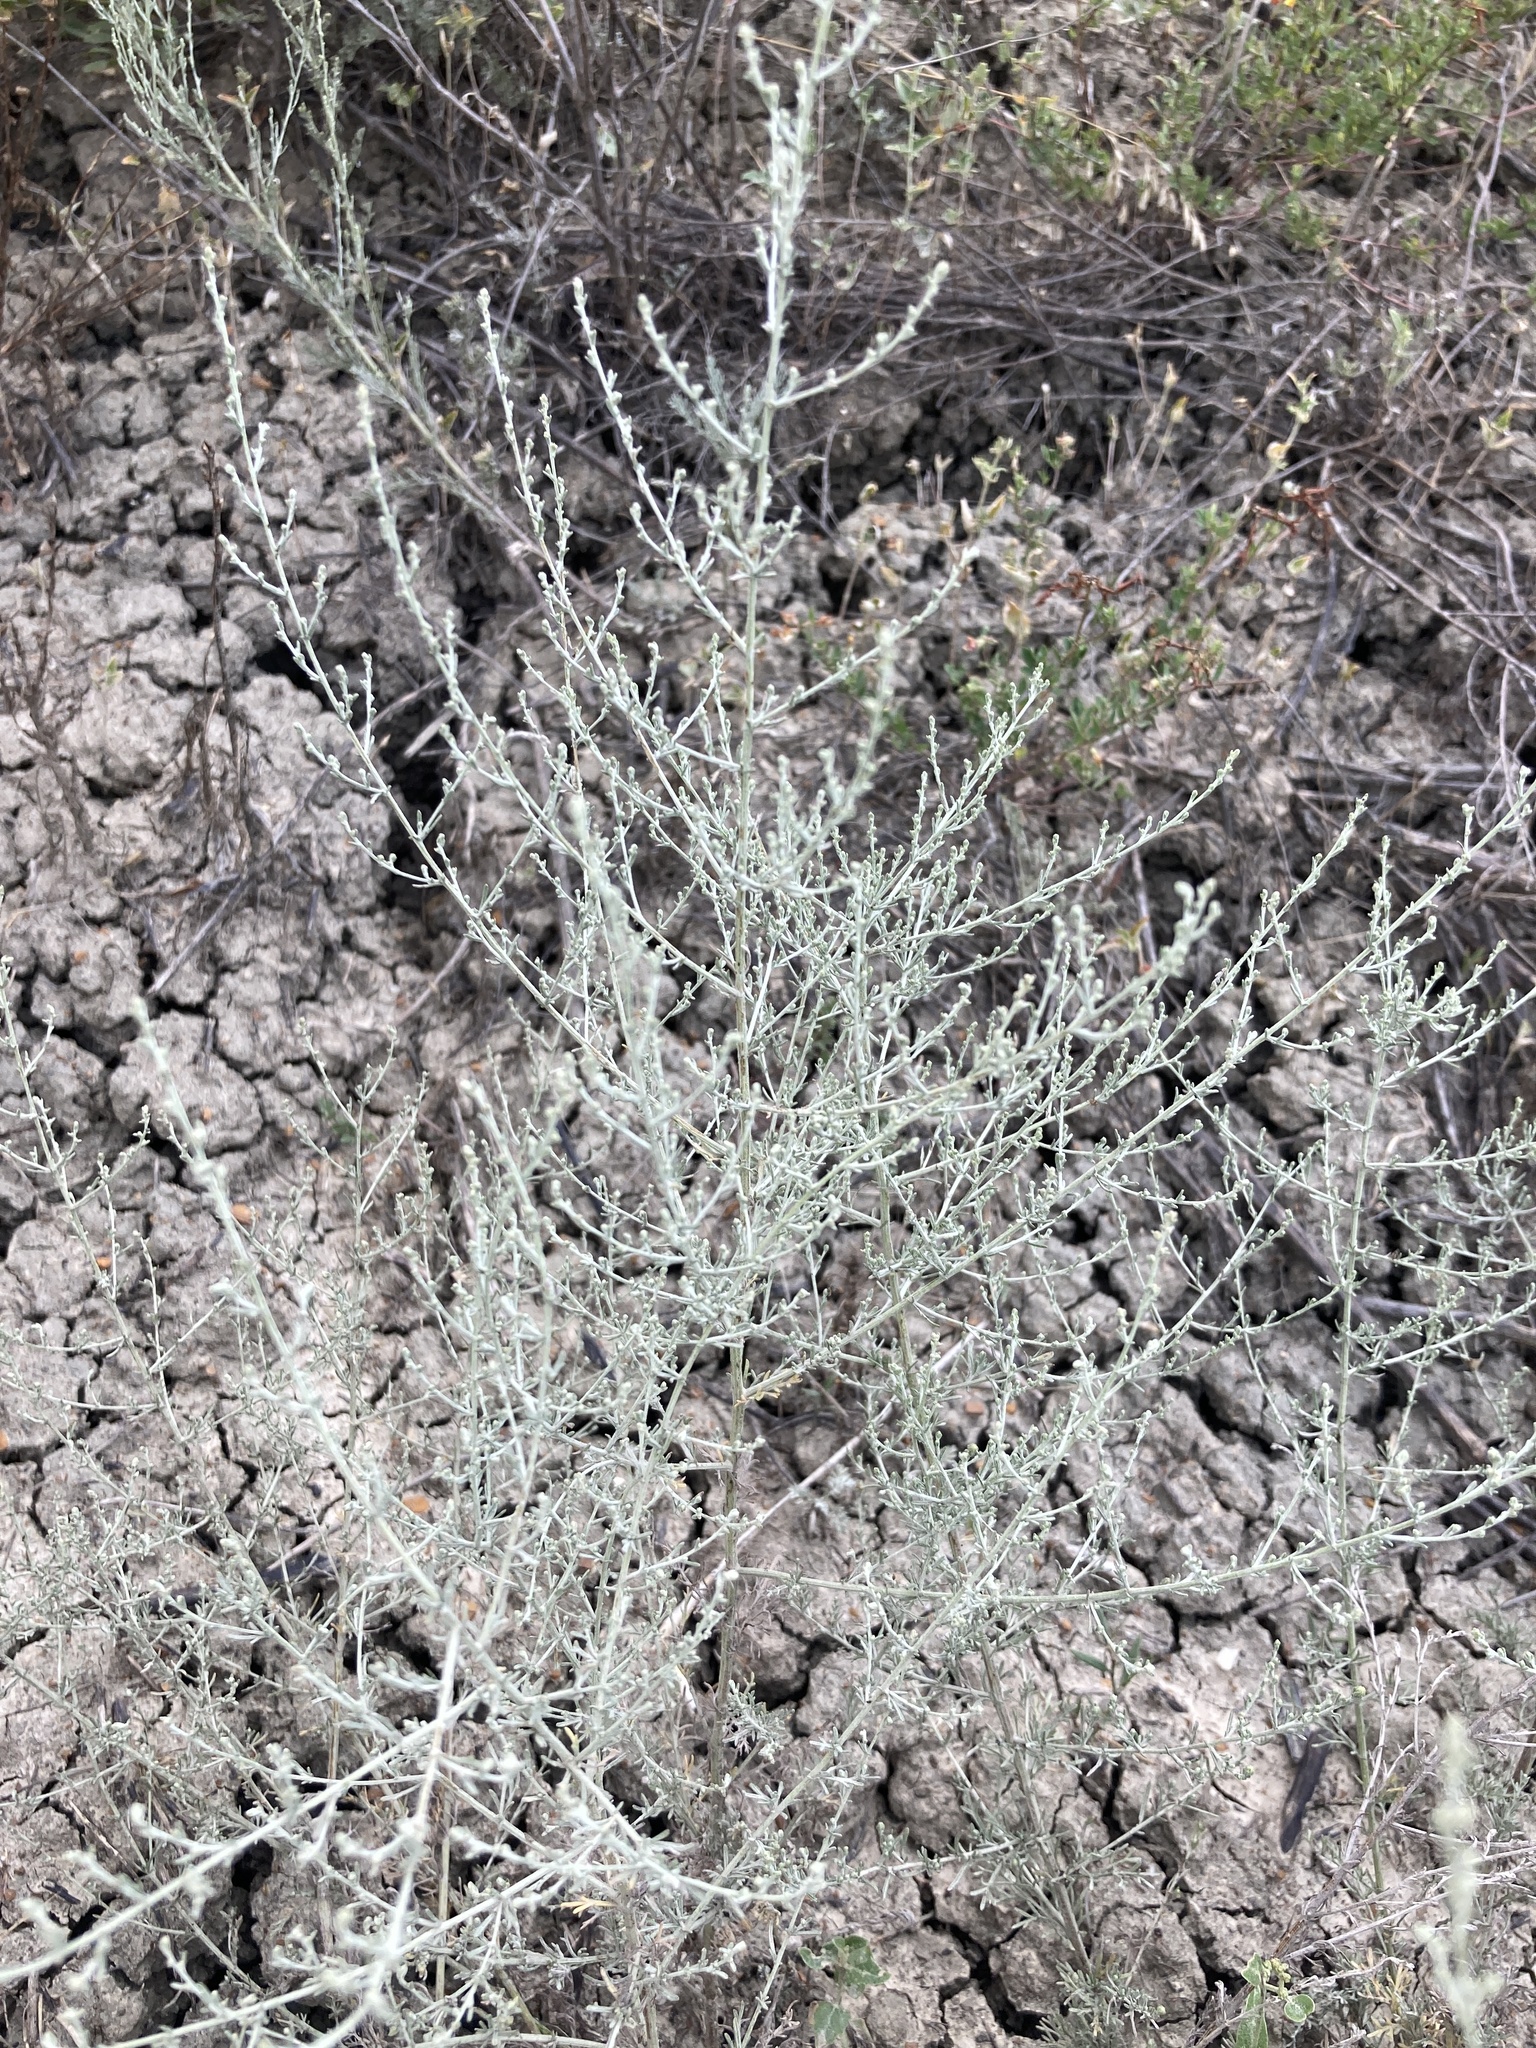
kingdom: Plantae
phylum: Tracheophyta
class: Magnoliopsida
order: Asterales
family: Asteraceae
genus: Artemisia
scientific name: Artemisia santonicum
